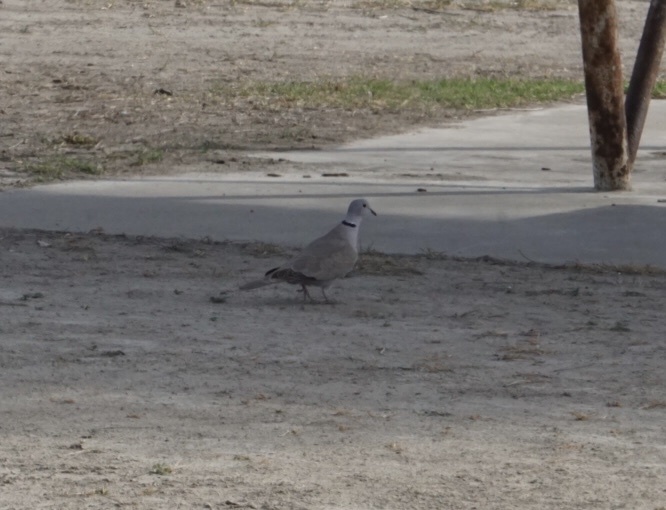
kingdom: Animalia
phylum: Chordata
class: Aves
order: Columbiformes
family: Columbidae
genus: Streptopelia
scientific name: Streptopelia decaocto
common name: Eurasian collared dove
